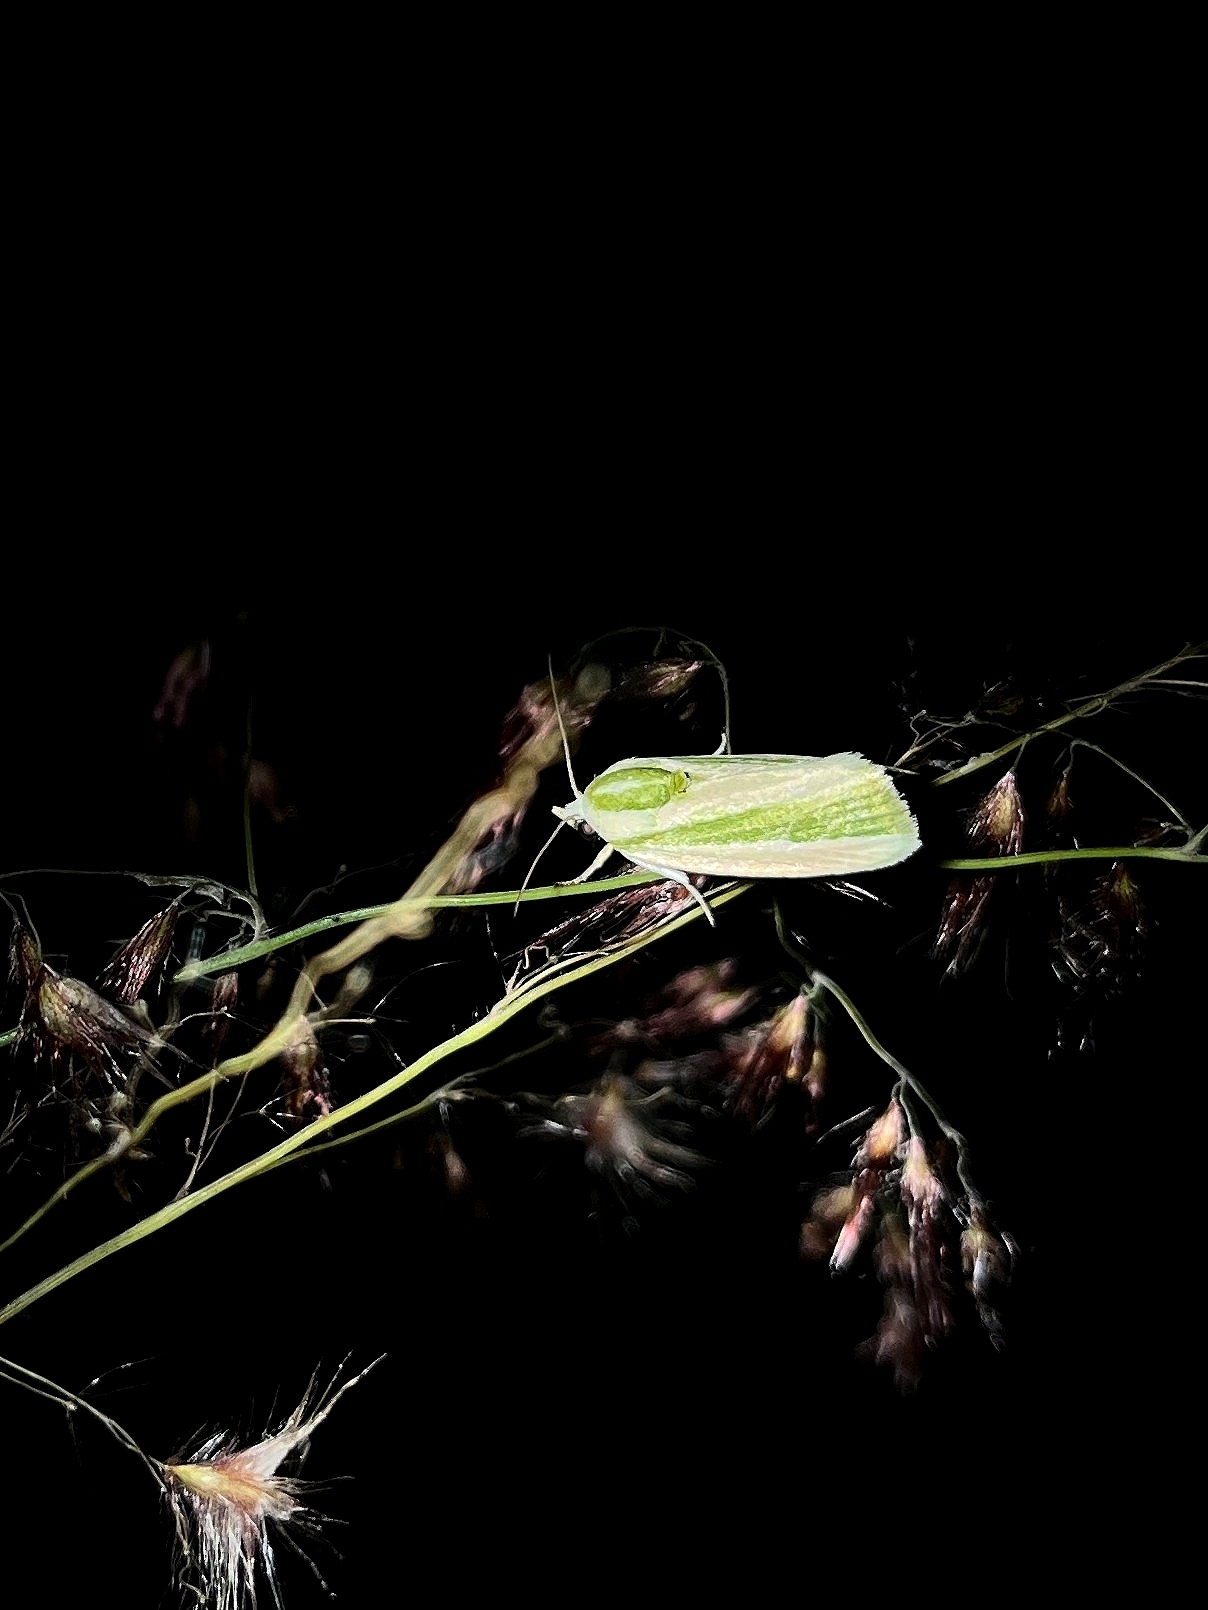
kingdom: Animalia
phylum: Arthropoda
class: Insecta
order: Lepidoptera
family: Nolidae
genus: Earias
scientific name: Earias vittella
